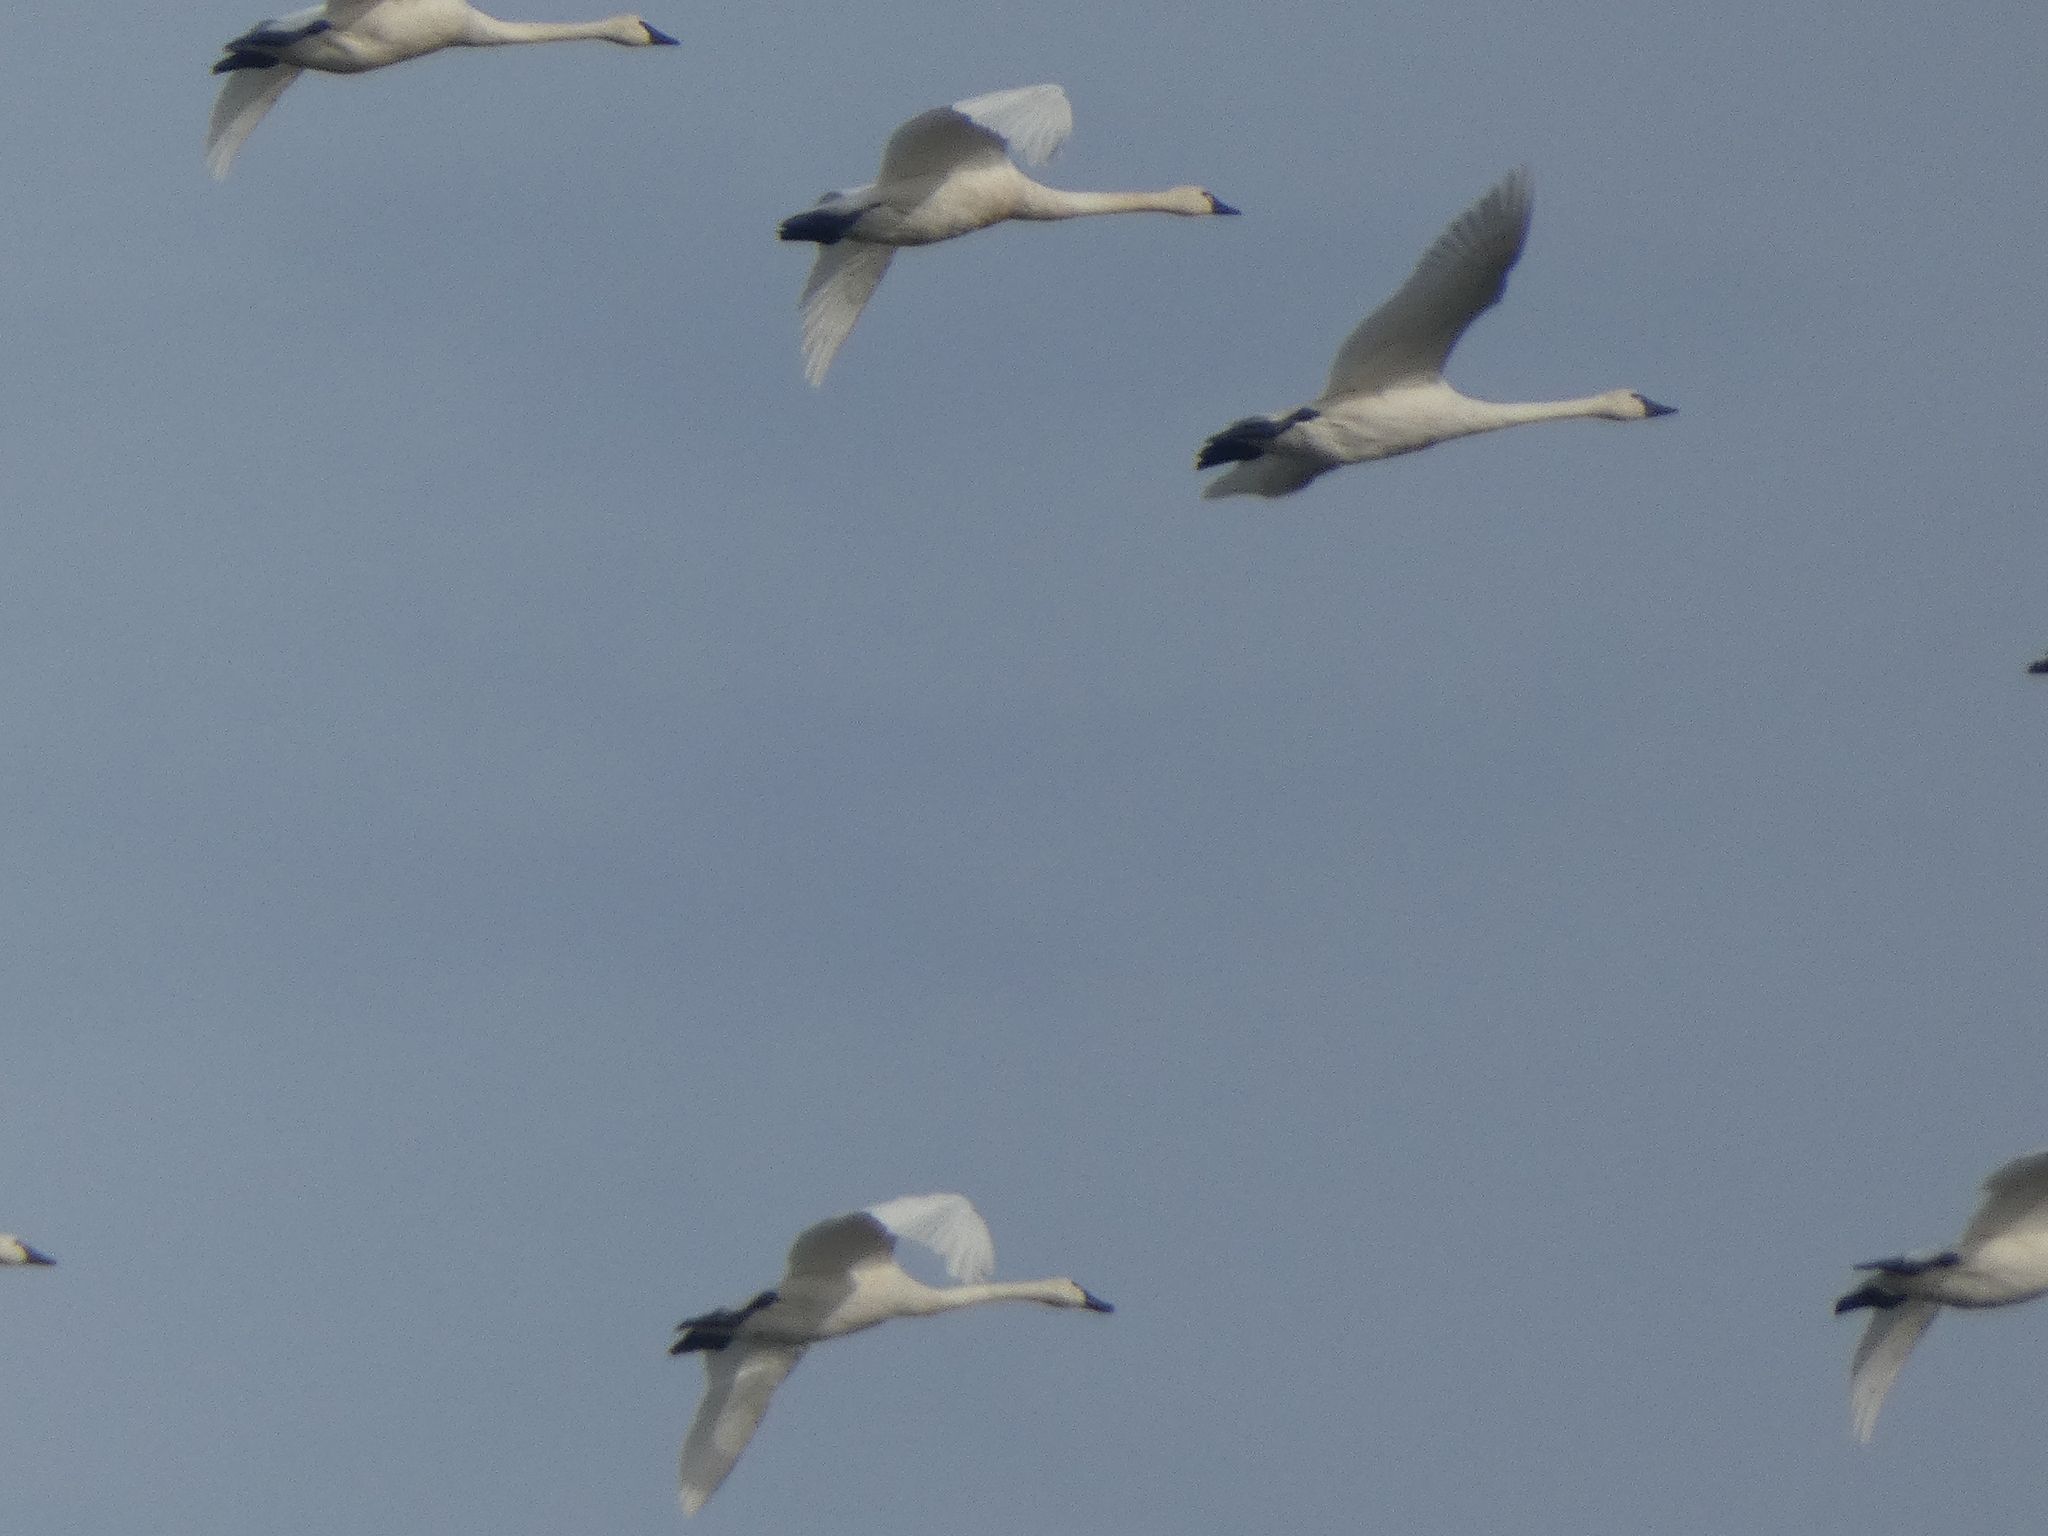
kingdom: Animalia
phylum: Chordata
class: Aves
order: Anseriformes
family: Anatidae
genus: Cygnus
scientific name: Cygnus columbianus
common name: Tundra swan
